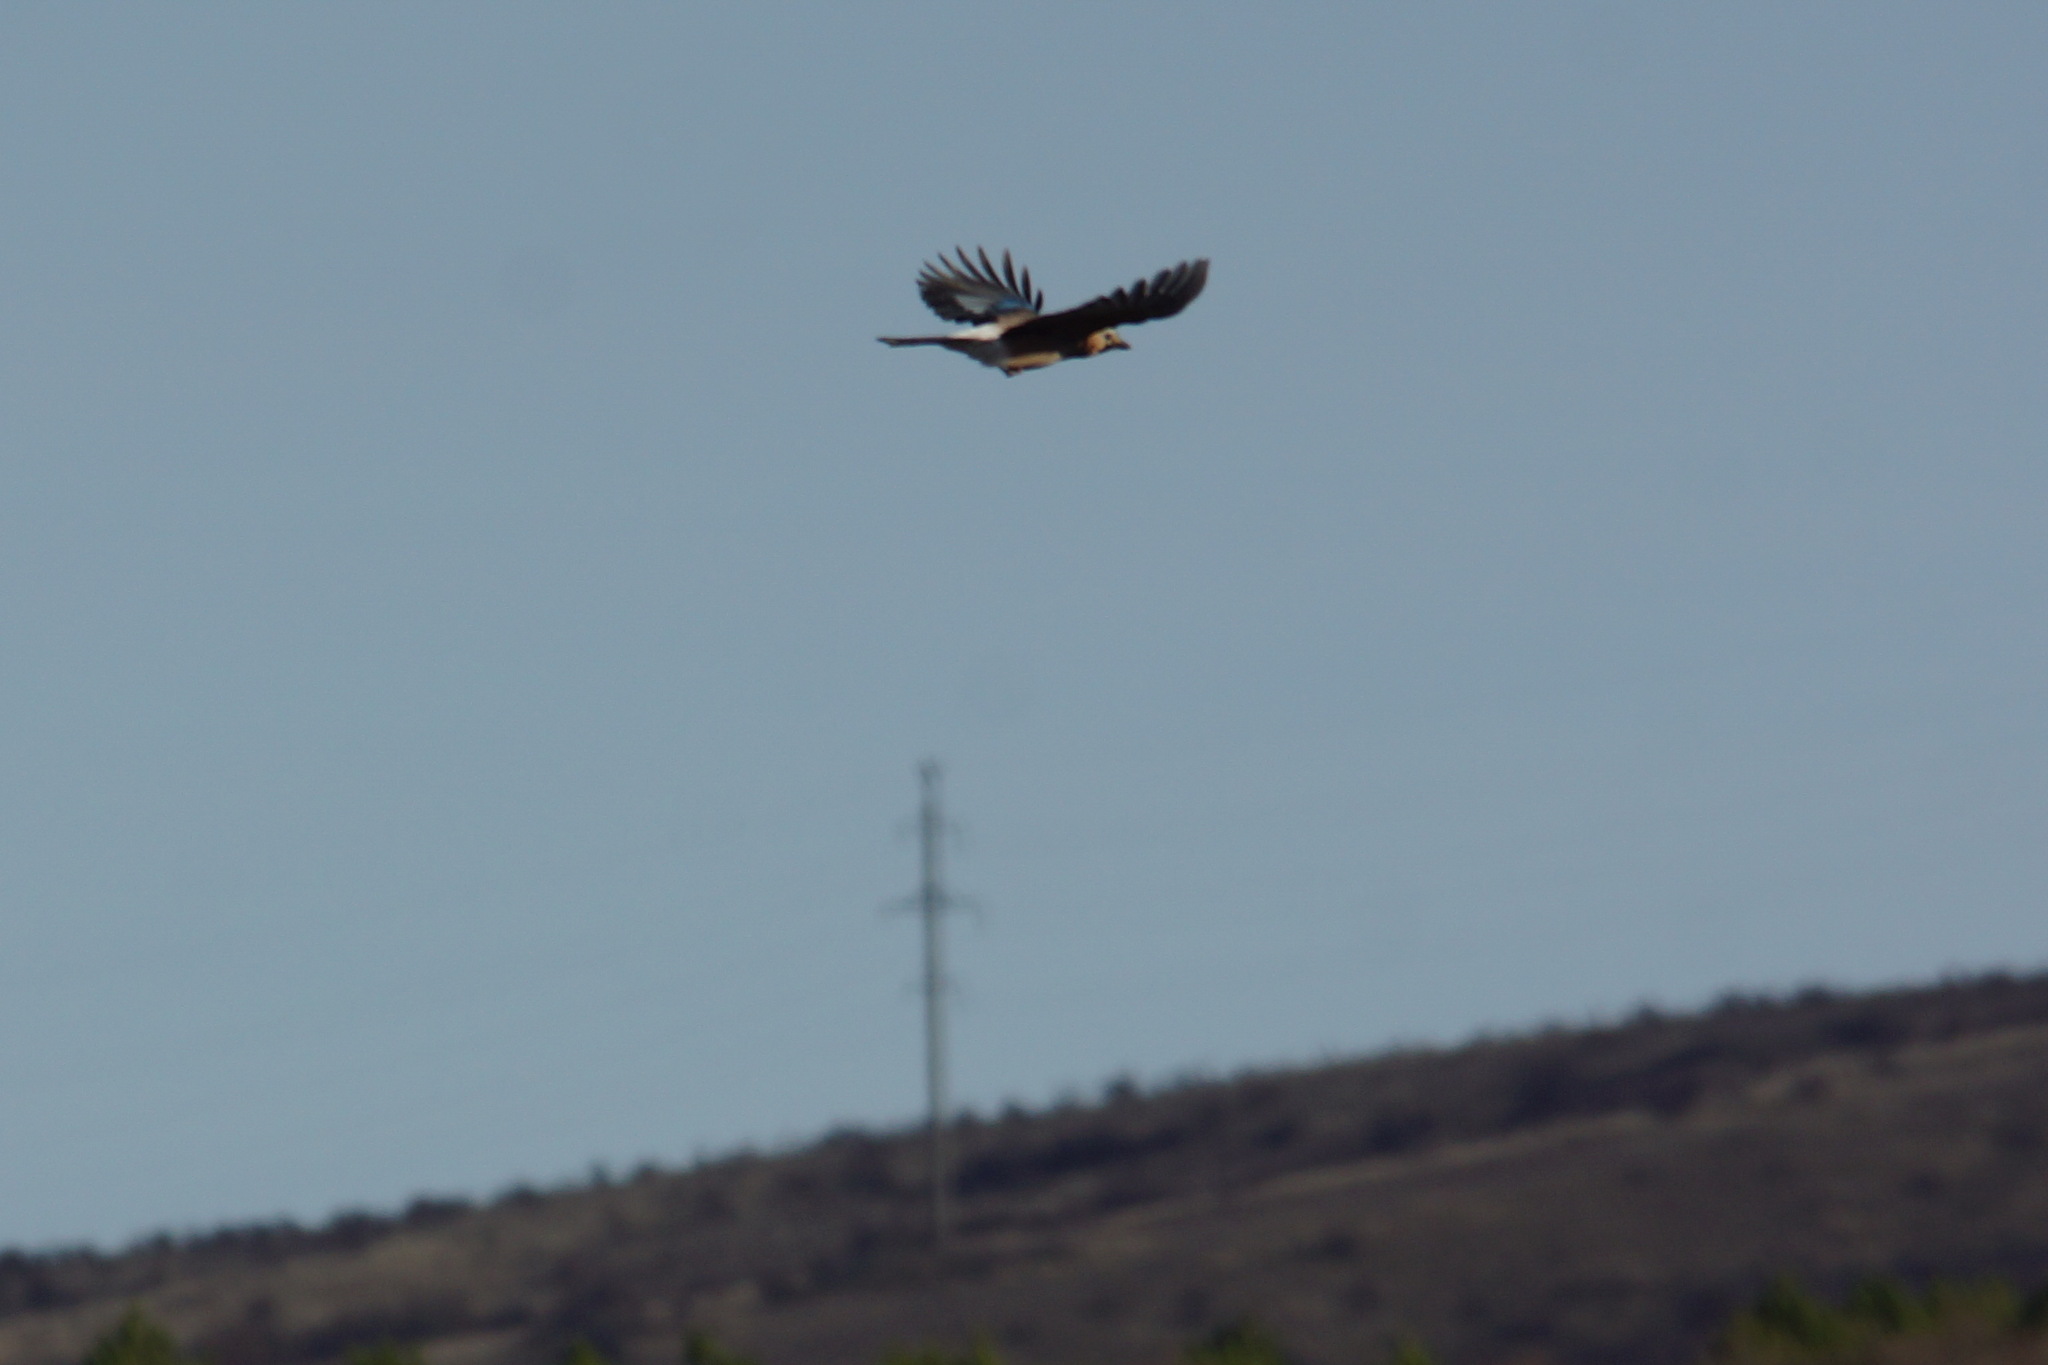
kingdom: Animalia
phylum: Chordata
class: Aves
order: Passeriformes
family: Corvidae
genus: Garrulus
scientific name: Garrulus glandarius
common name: Eurasian jay
